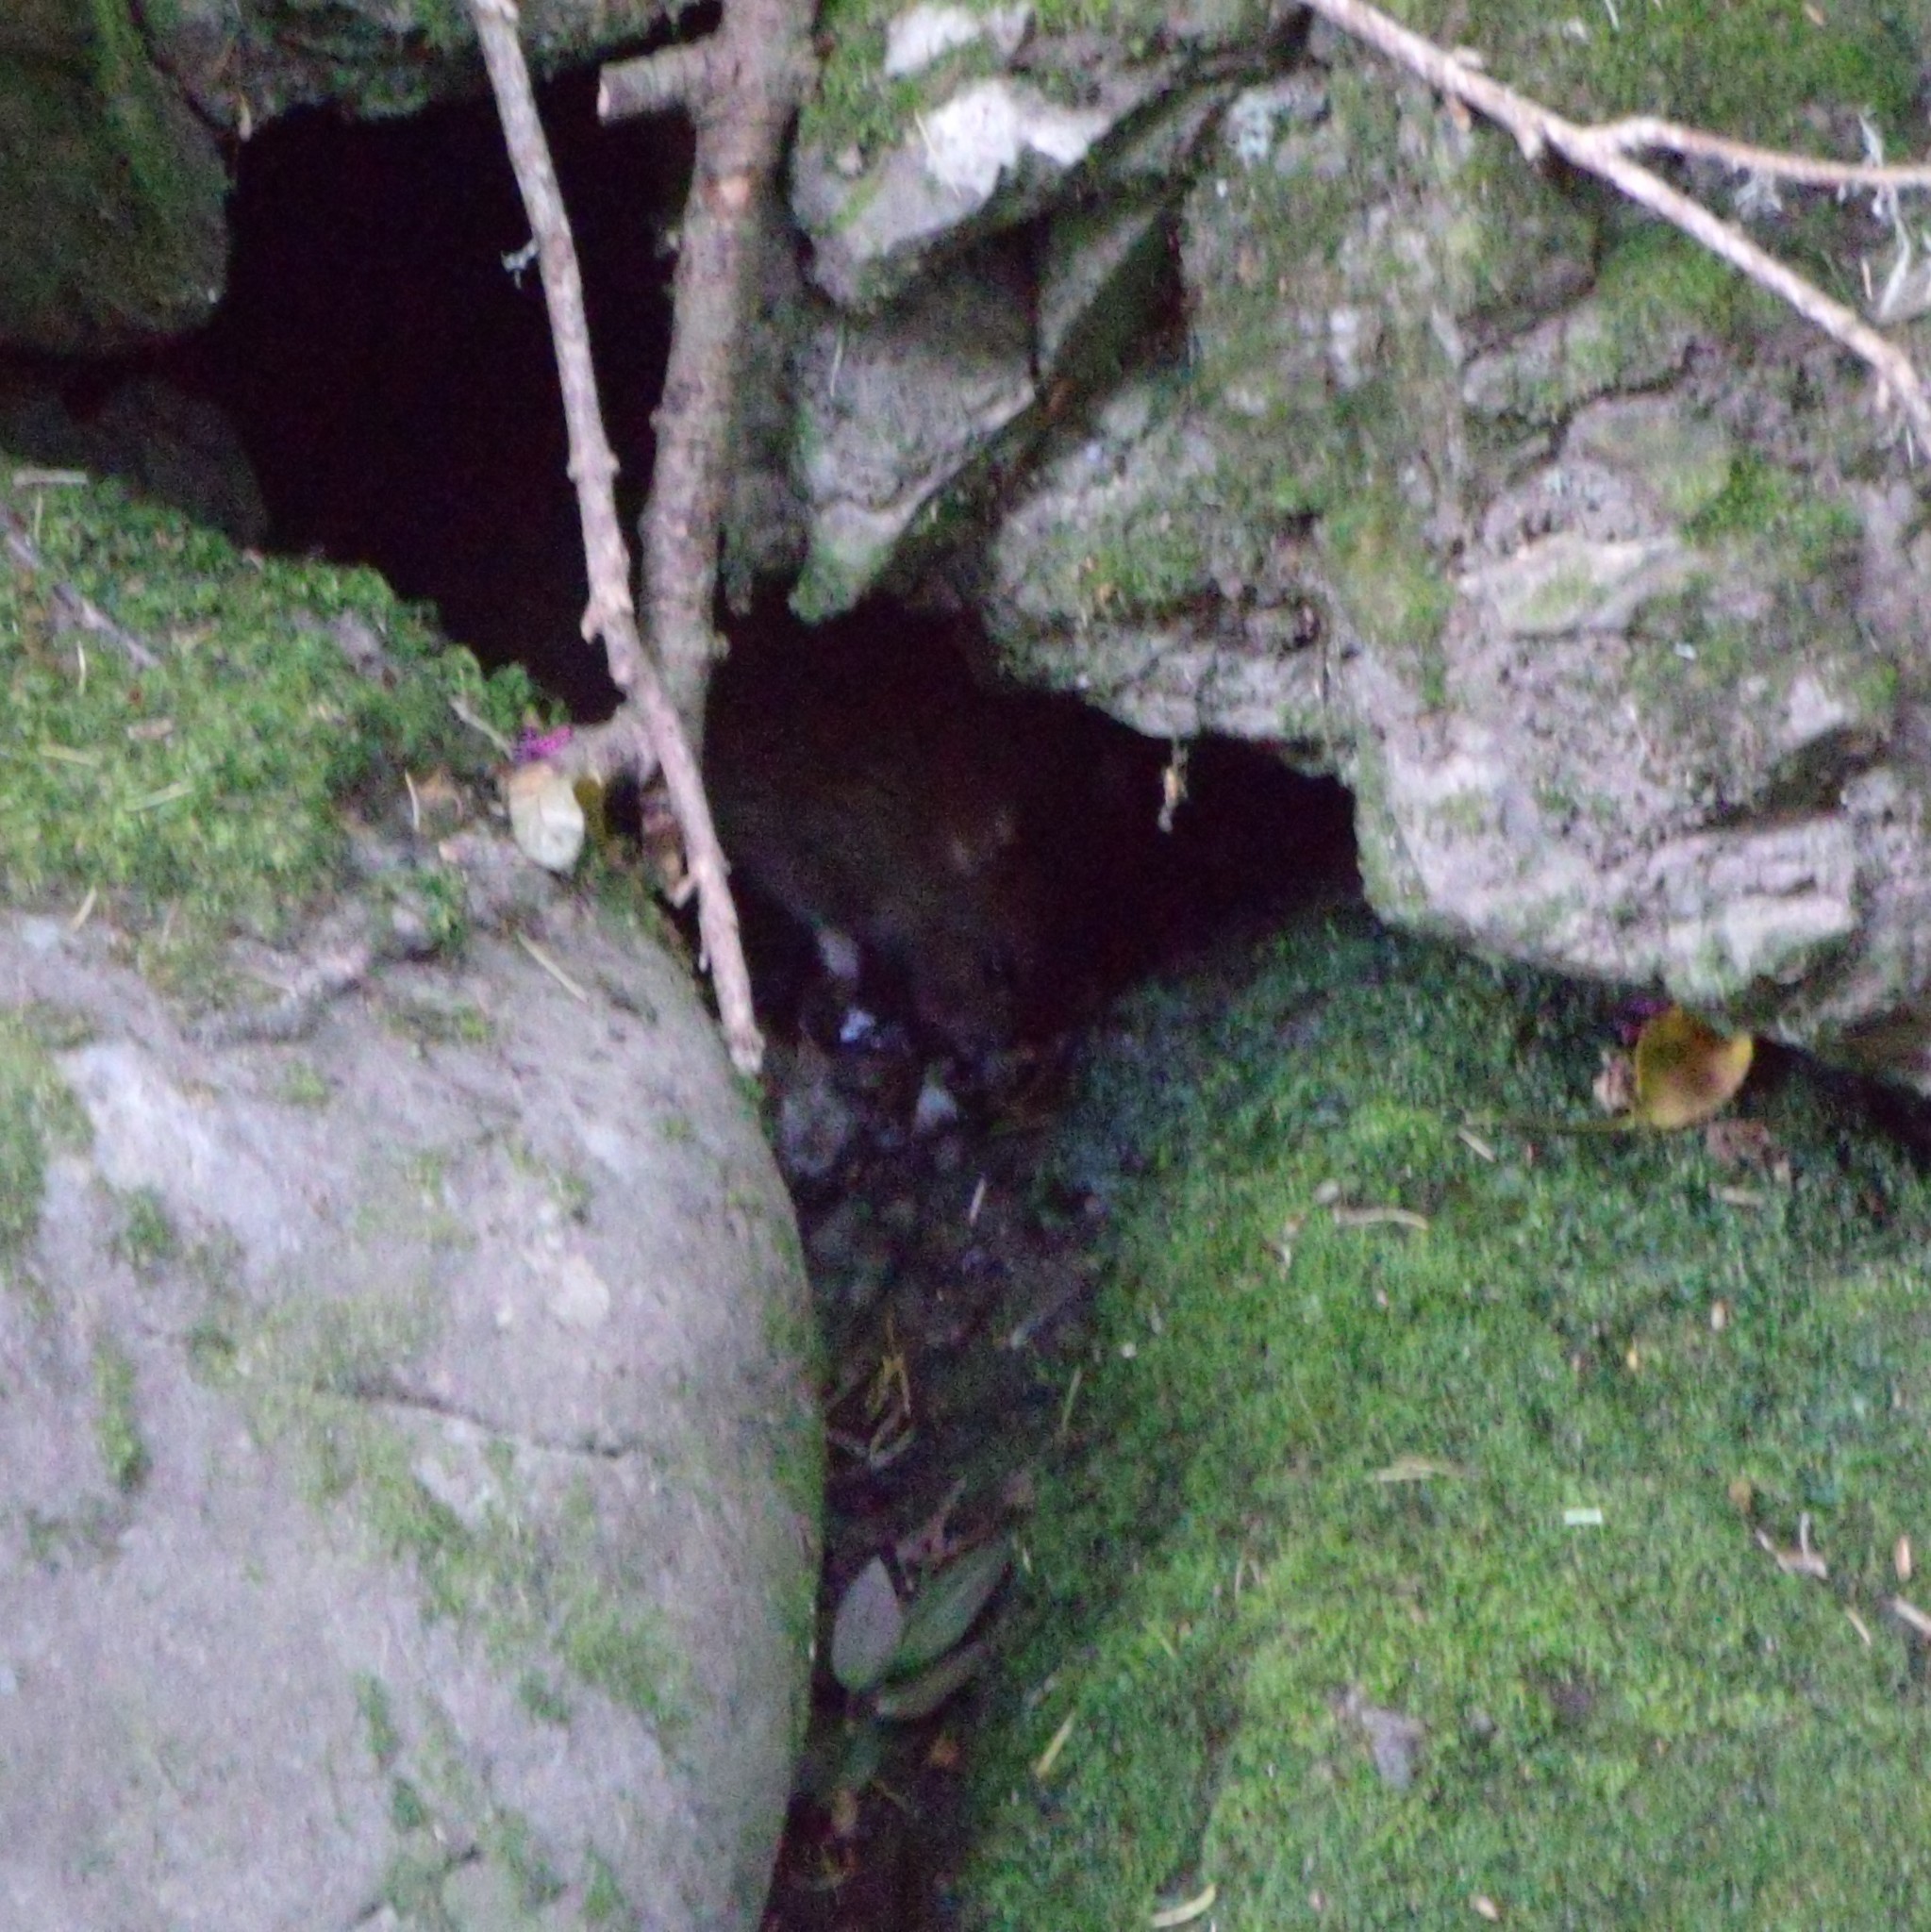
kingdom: Animalia
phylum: Chordata
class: Mammalia
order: Rodentia
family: Muridae
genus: Rattus
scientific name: Rattus norvegicus
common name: Brown rat
